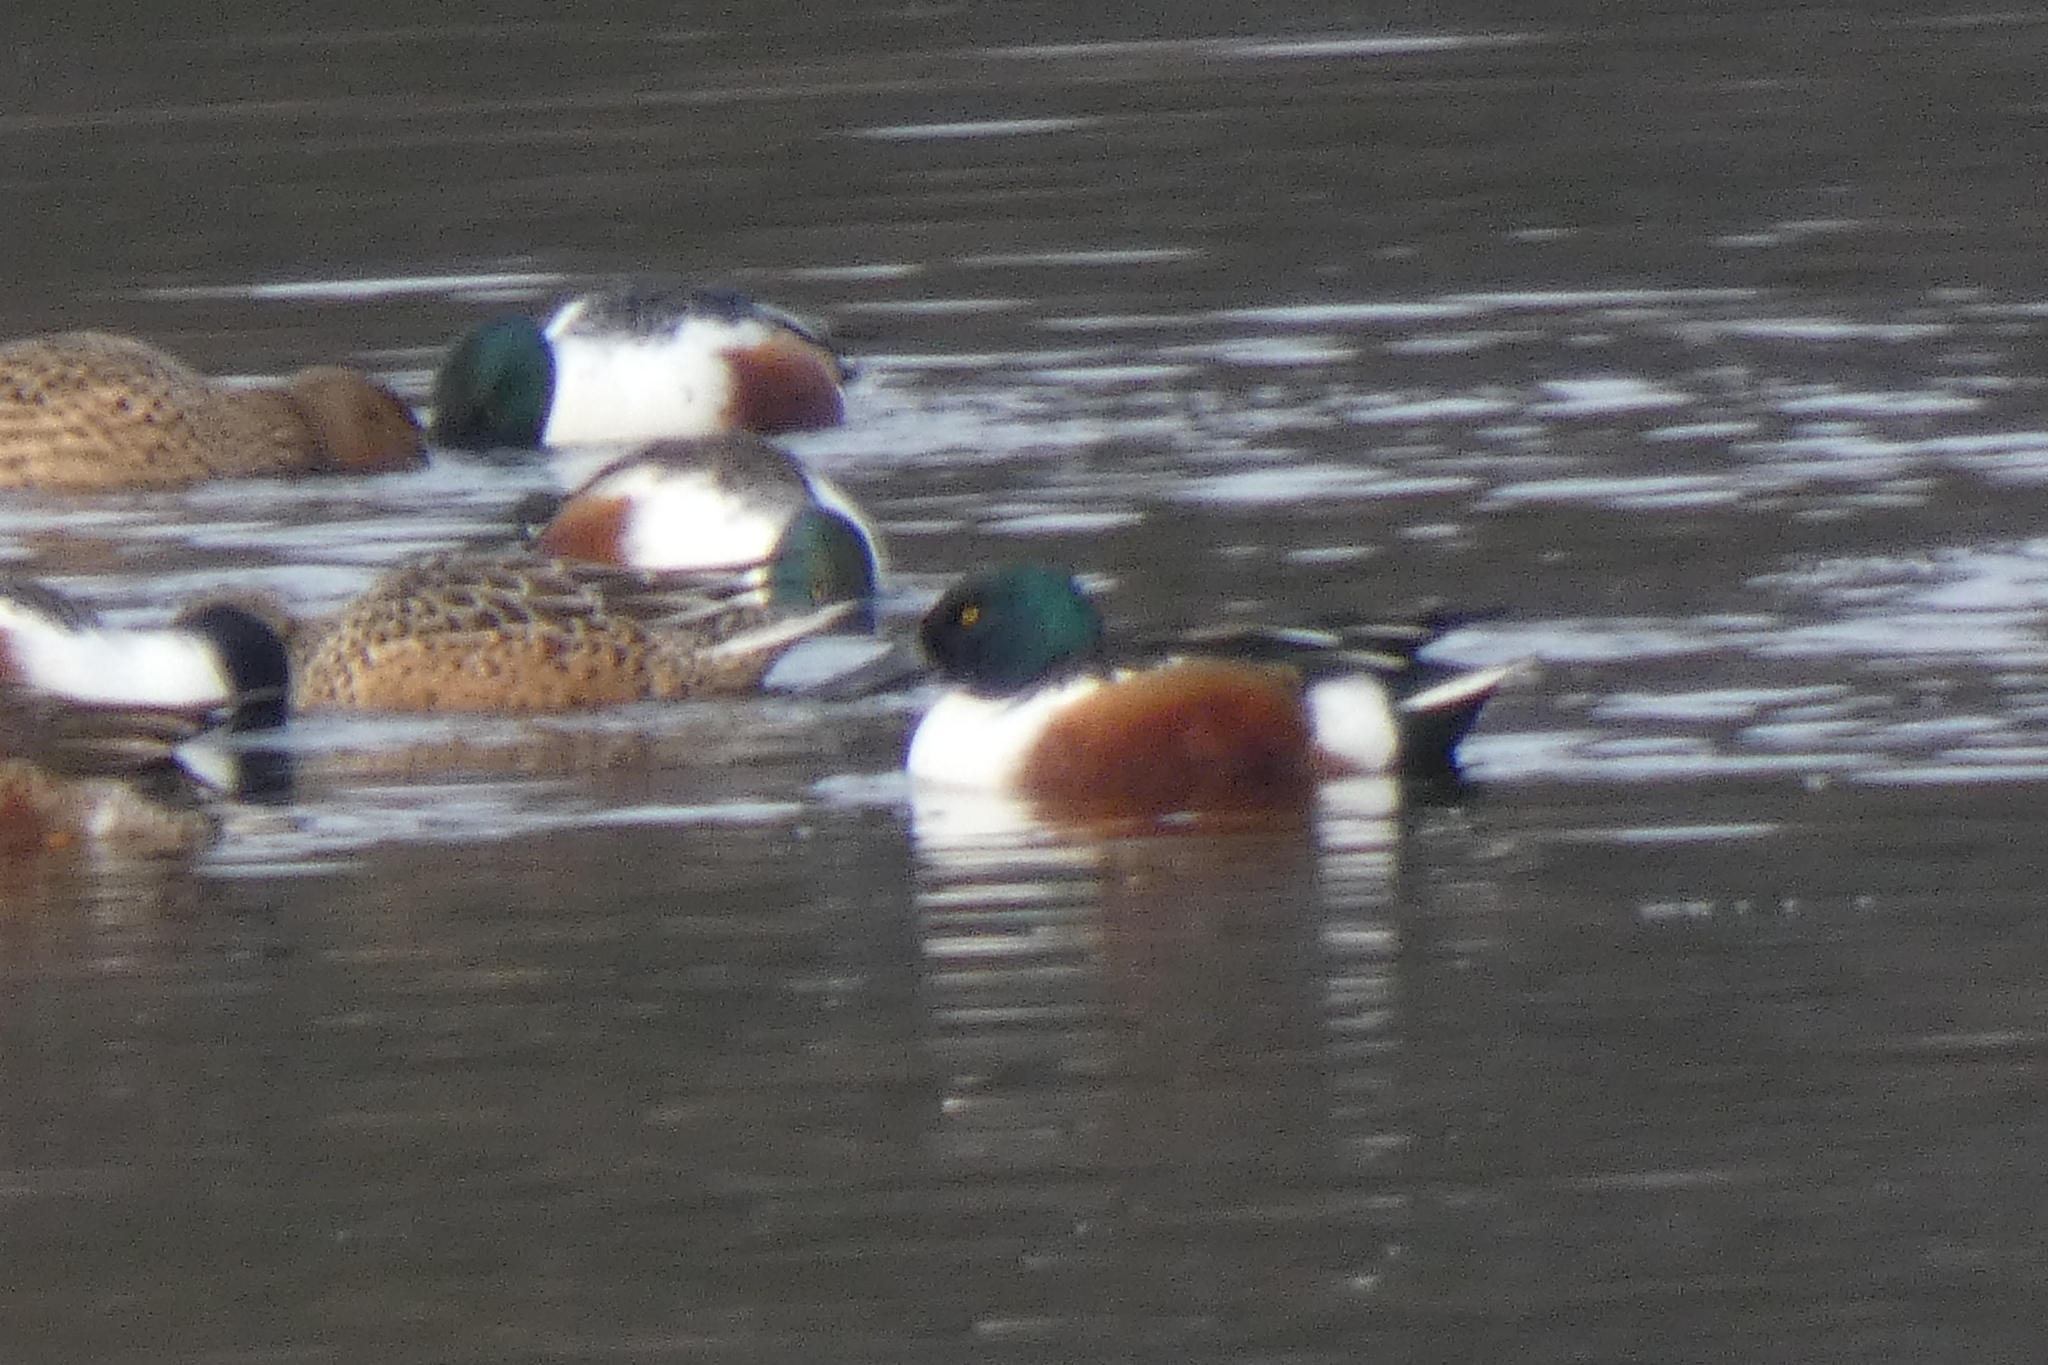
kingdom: Animalia
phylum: Chordata
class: Aves
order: Anseriformes
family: Anatidae
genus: Spatula
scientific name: Spatula clypeata
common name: Northern shoveler
